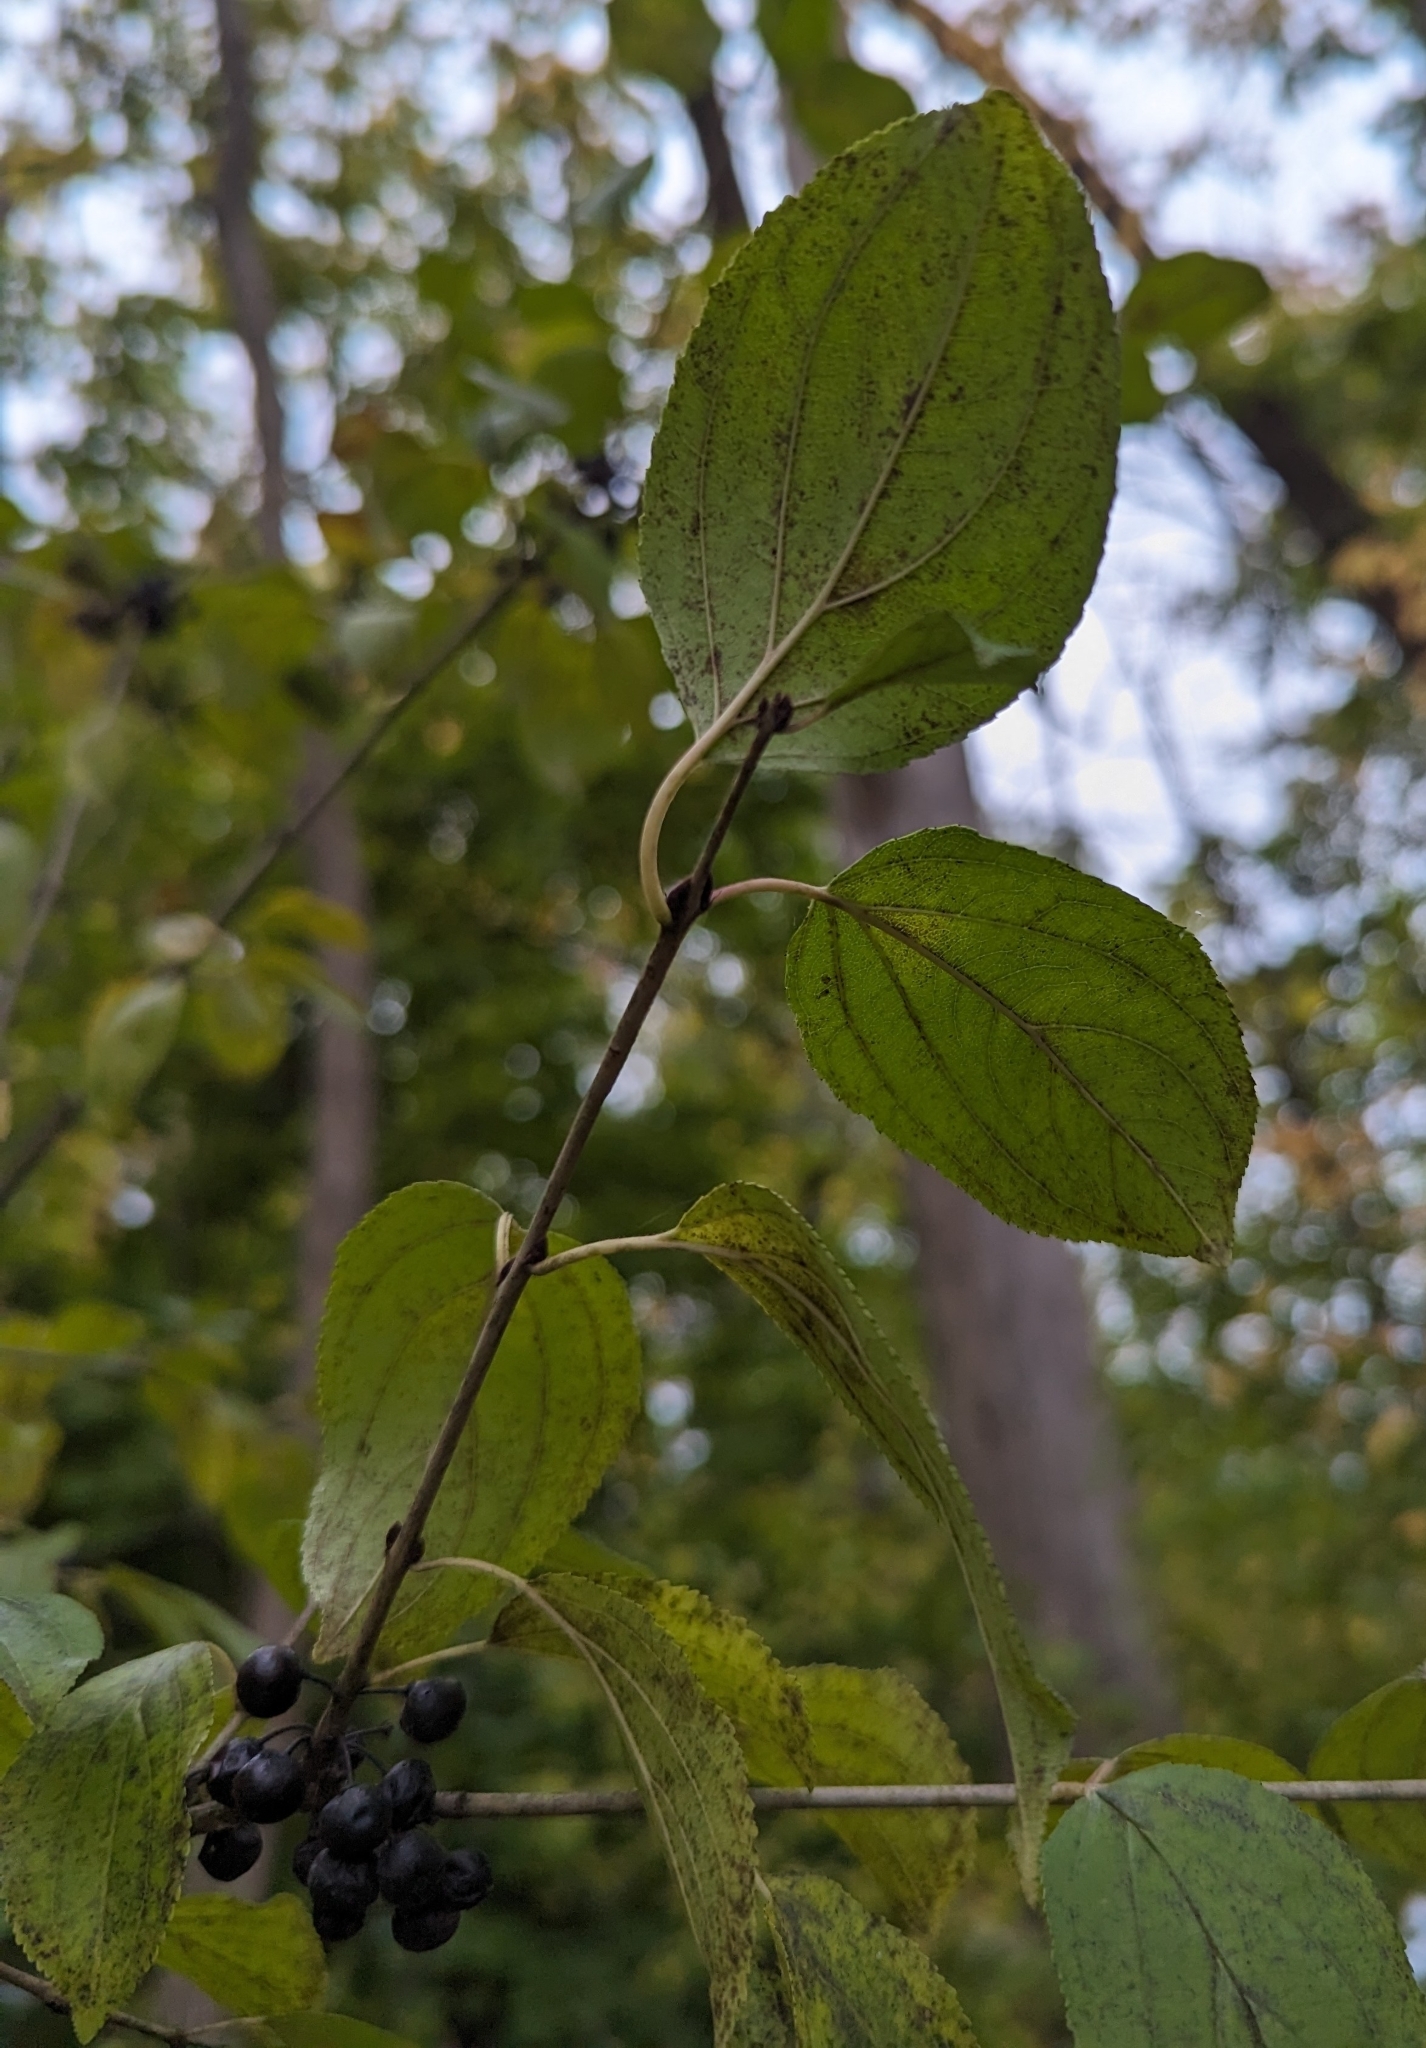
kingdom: Plantae
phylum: Tracheophyta
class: Magnoliopsida
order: Rosales
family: Rhamnaceae
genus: Rhamnus
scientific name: Rhamnus cathartica
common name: Common buckthorn
